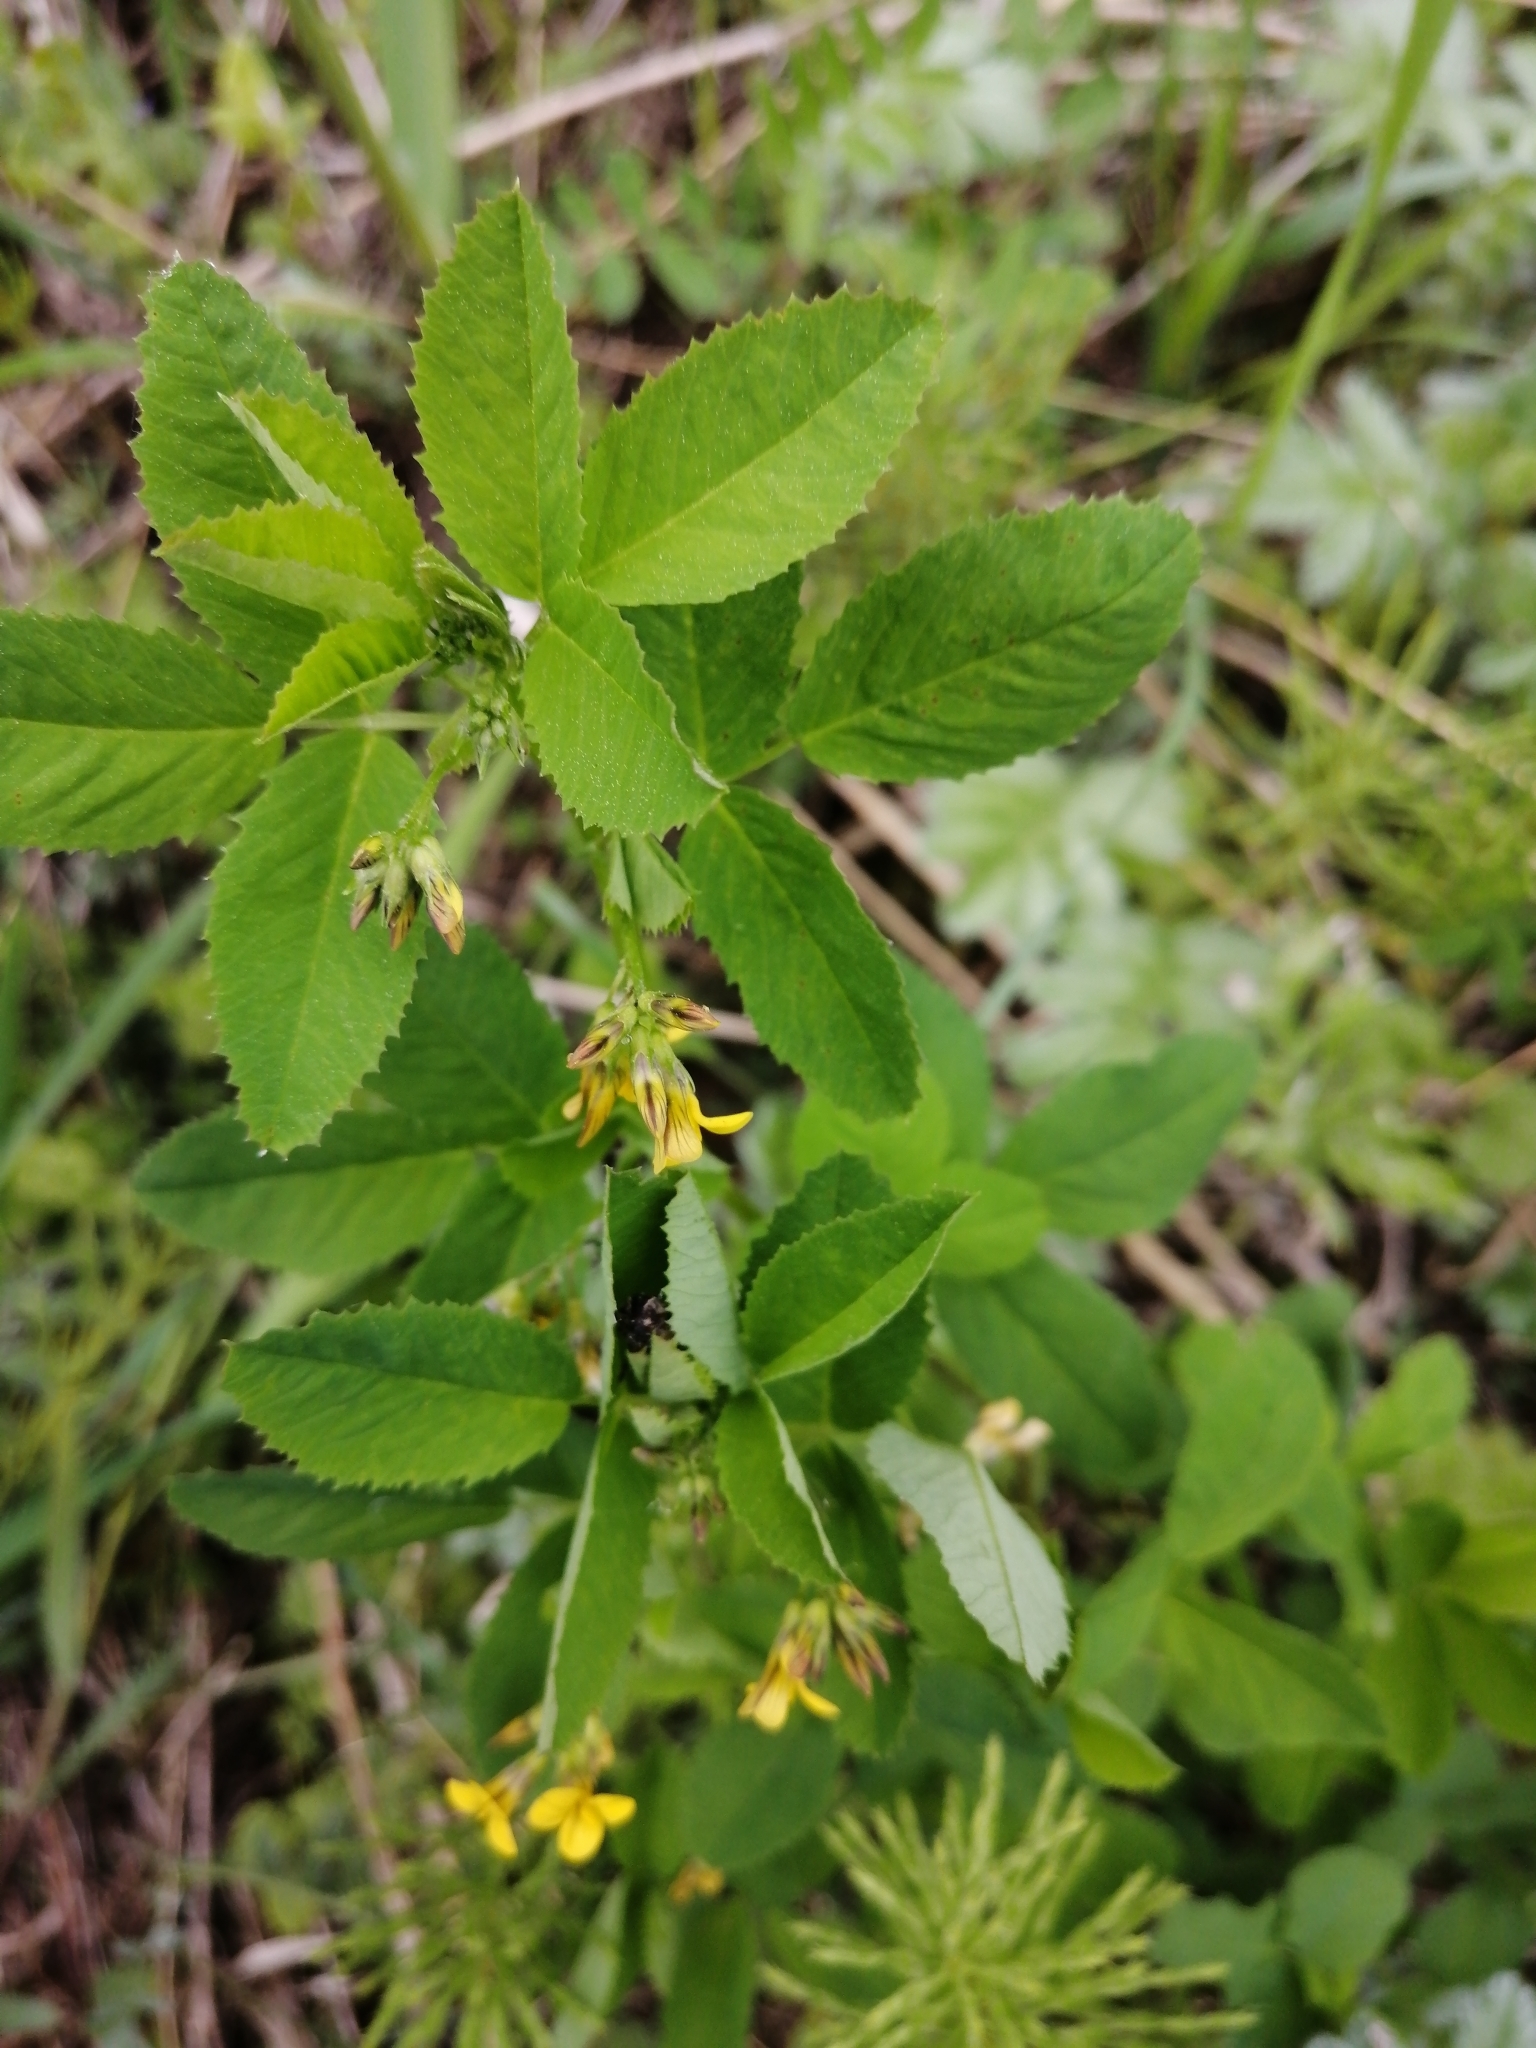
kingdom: Plantae
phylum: Tracheophyta
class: Magnoliopsida
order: Fabales
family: Fabaceae
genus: Medicago
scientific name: Medicago platycarpos
